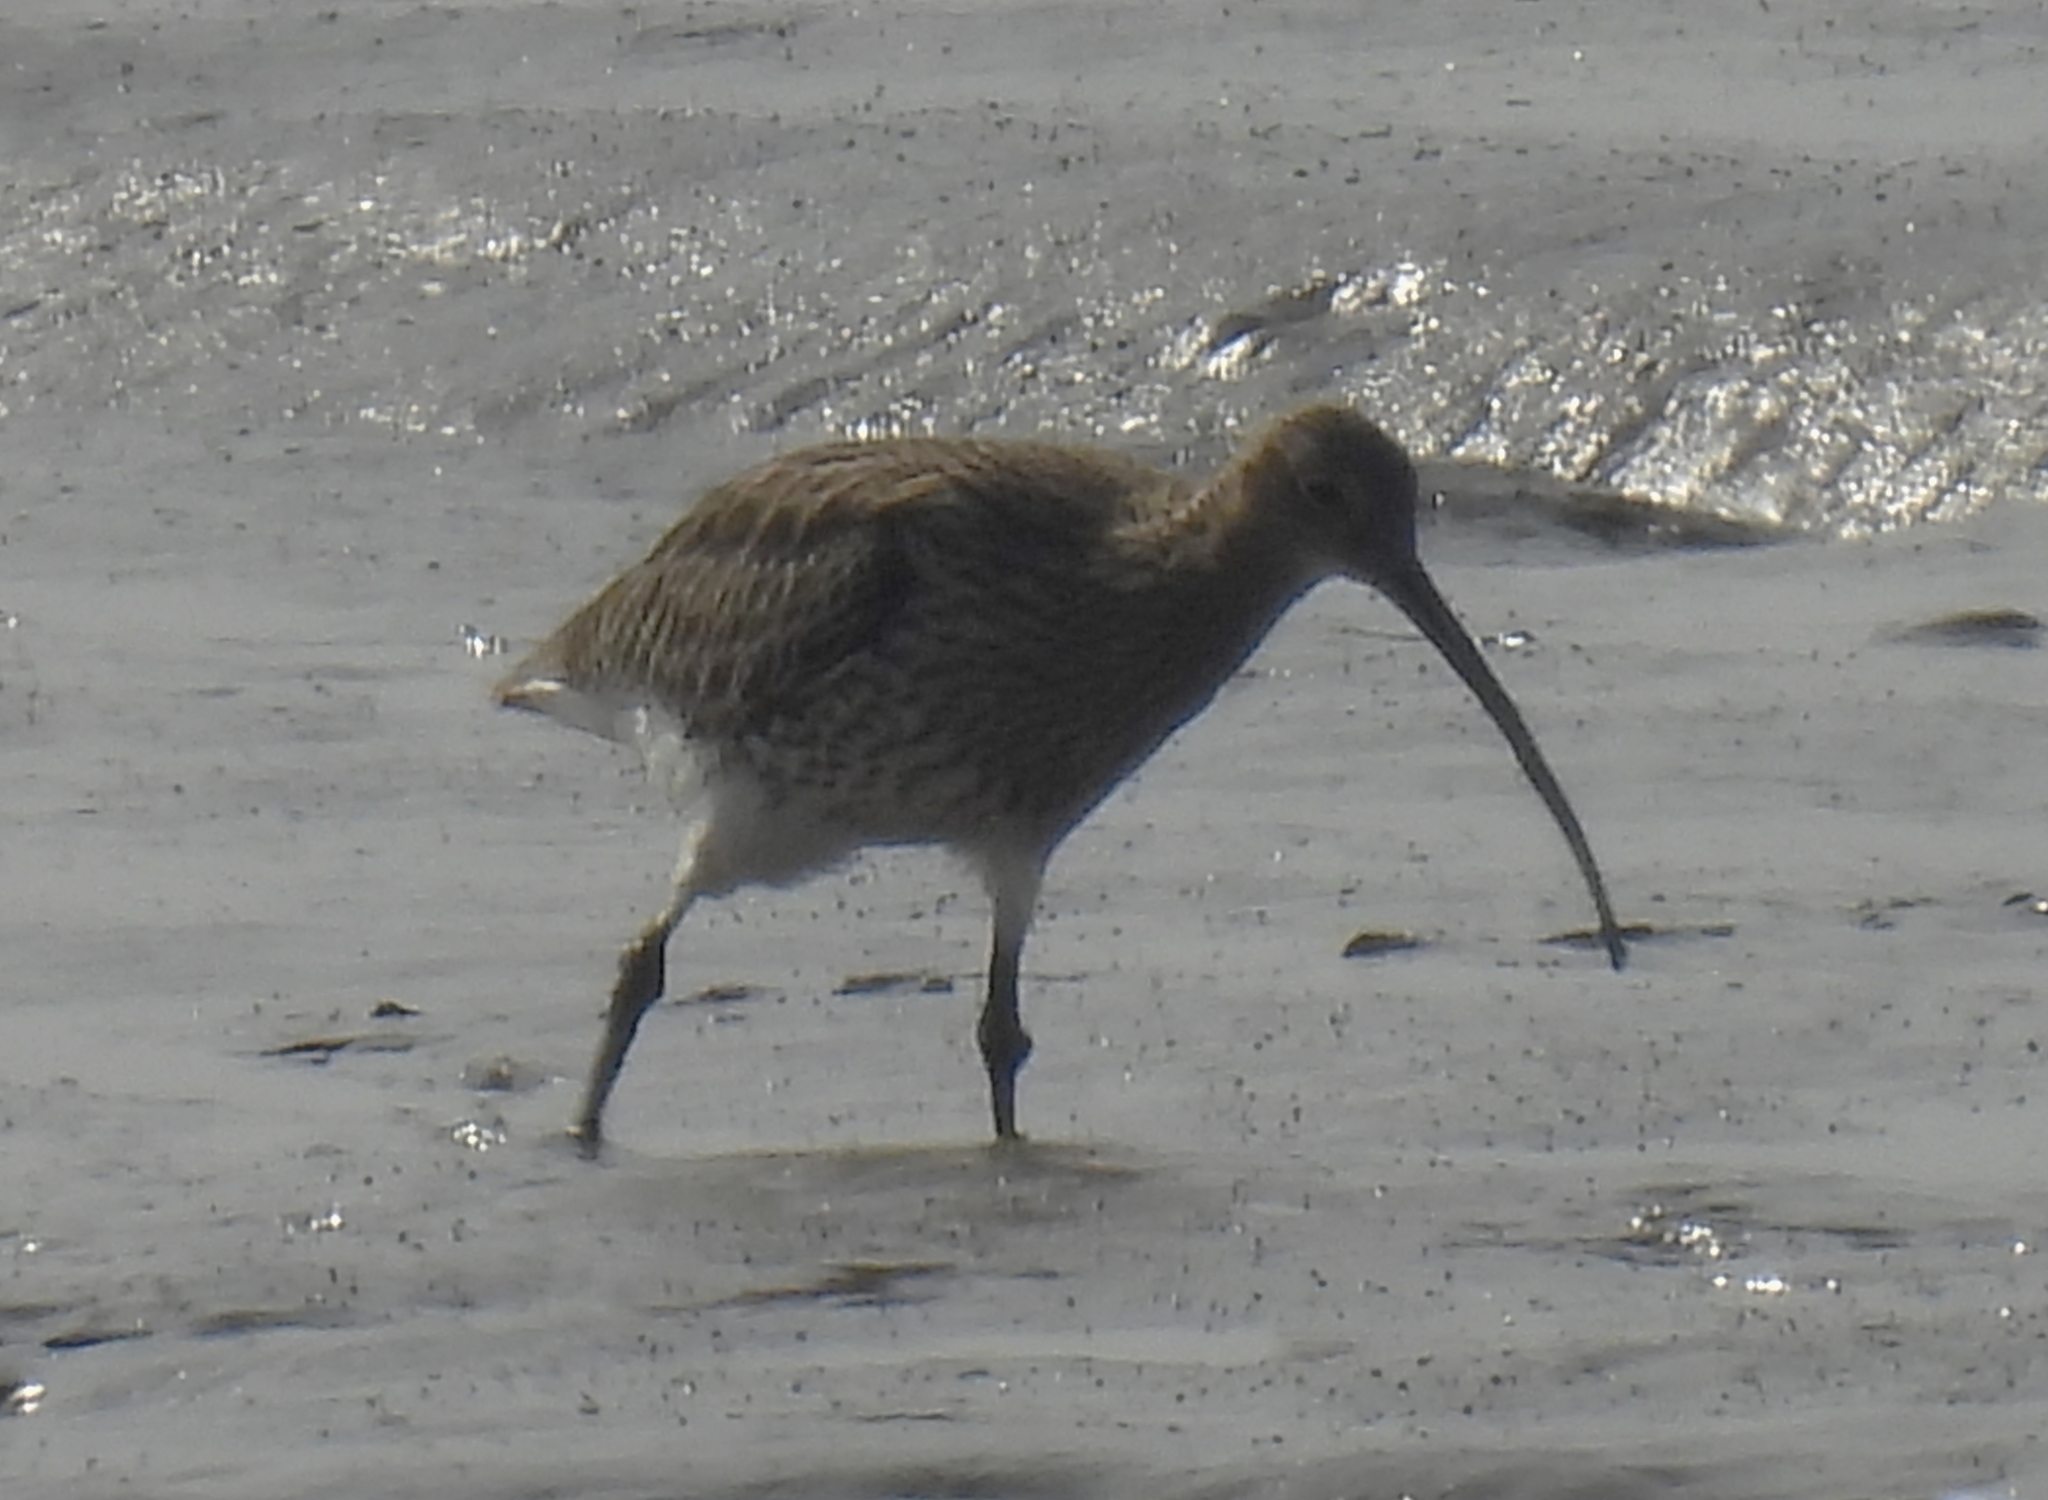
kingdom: Animalia
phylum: Chordata
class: Aves
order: Charadriiformes
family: Scolopacidae
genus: Numenius
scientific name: Numenius arquata
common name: Eurasian curlew
